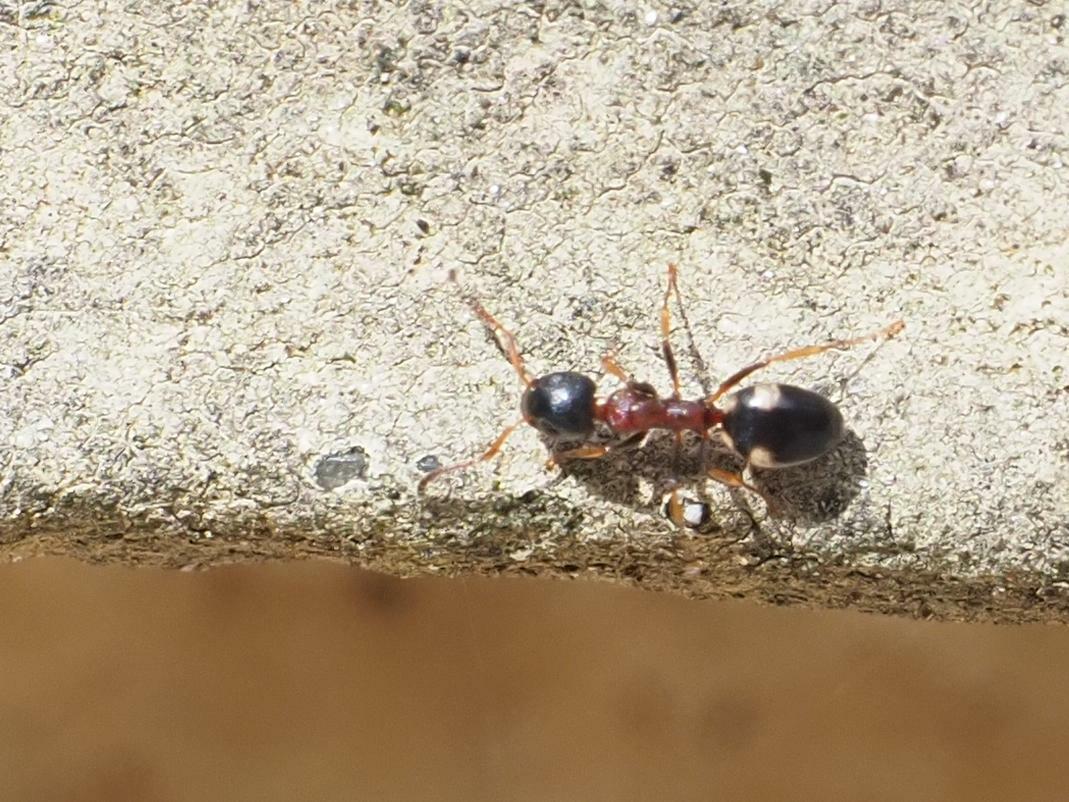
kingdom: Animalia
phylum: Arthropoda
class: Insecta
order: Hymenoptera
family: Formicidae
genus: Dolichoderus
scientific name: Dolichoderus quadripunctatus
